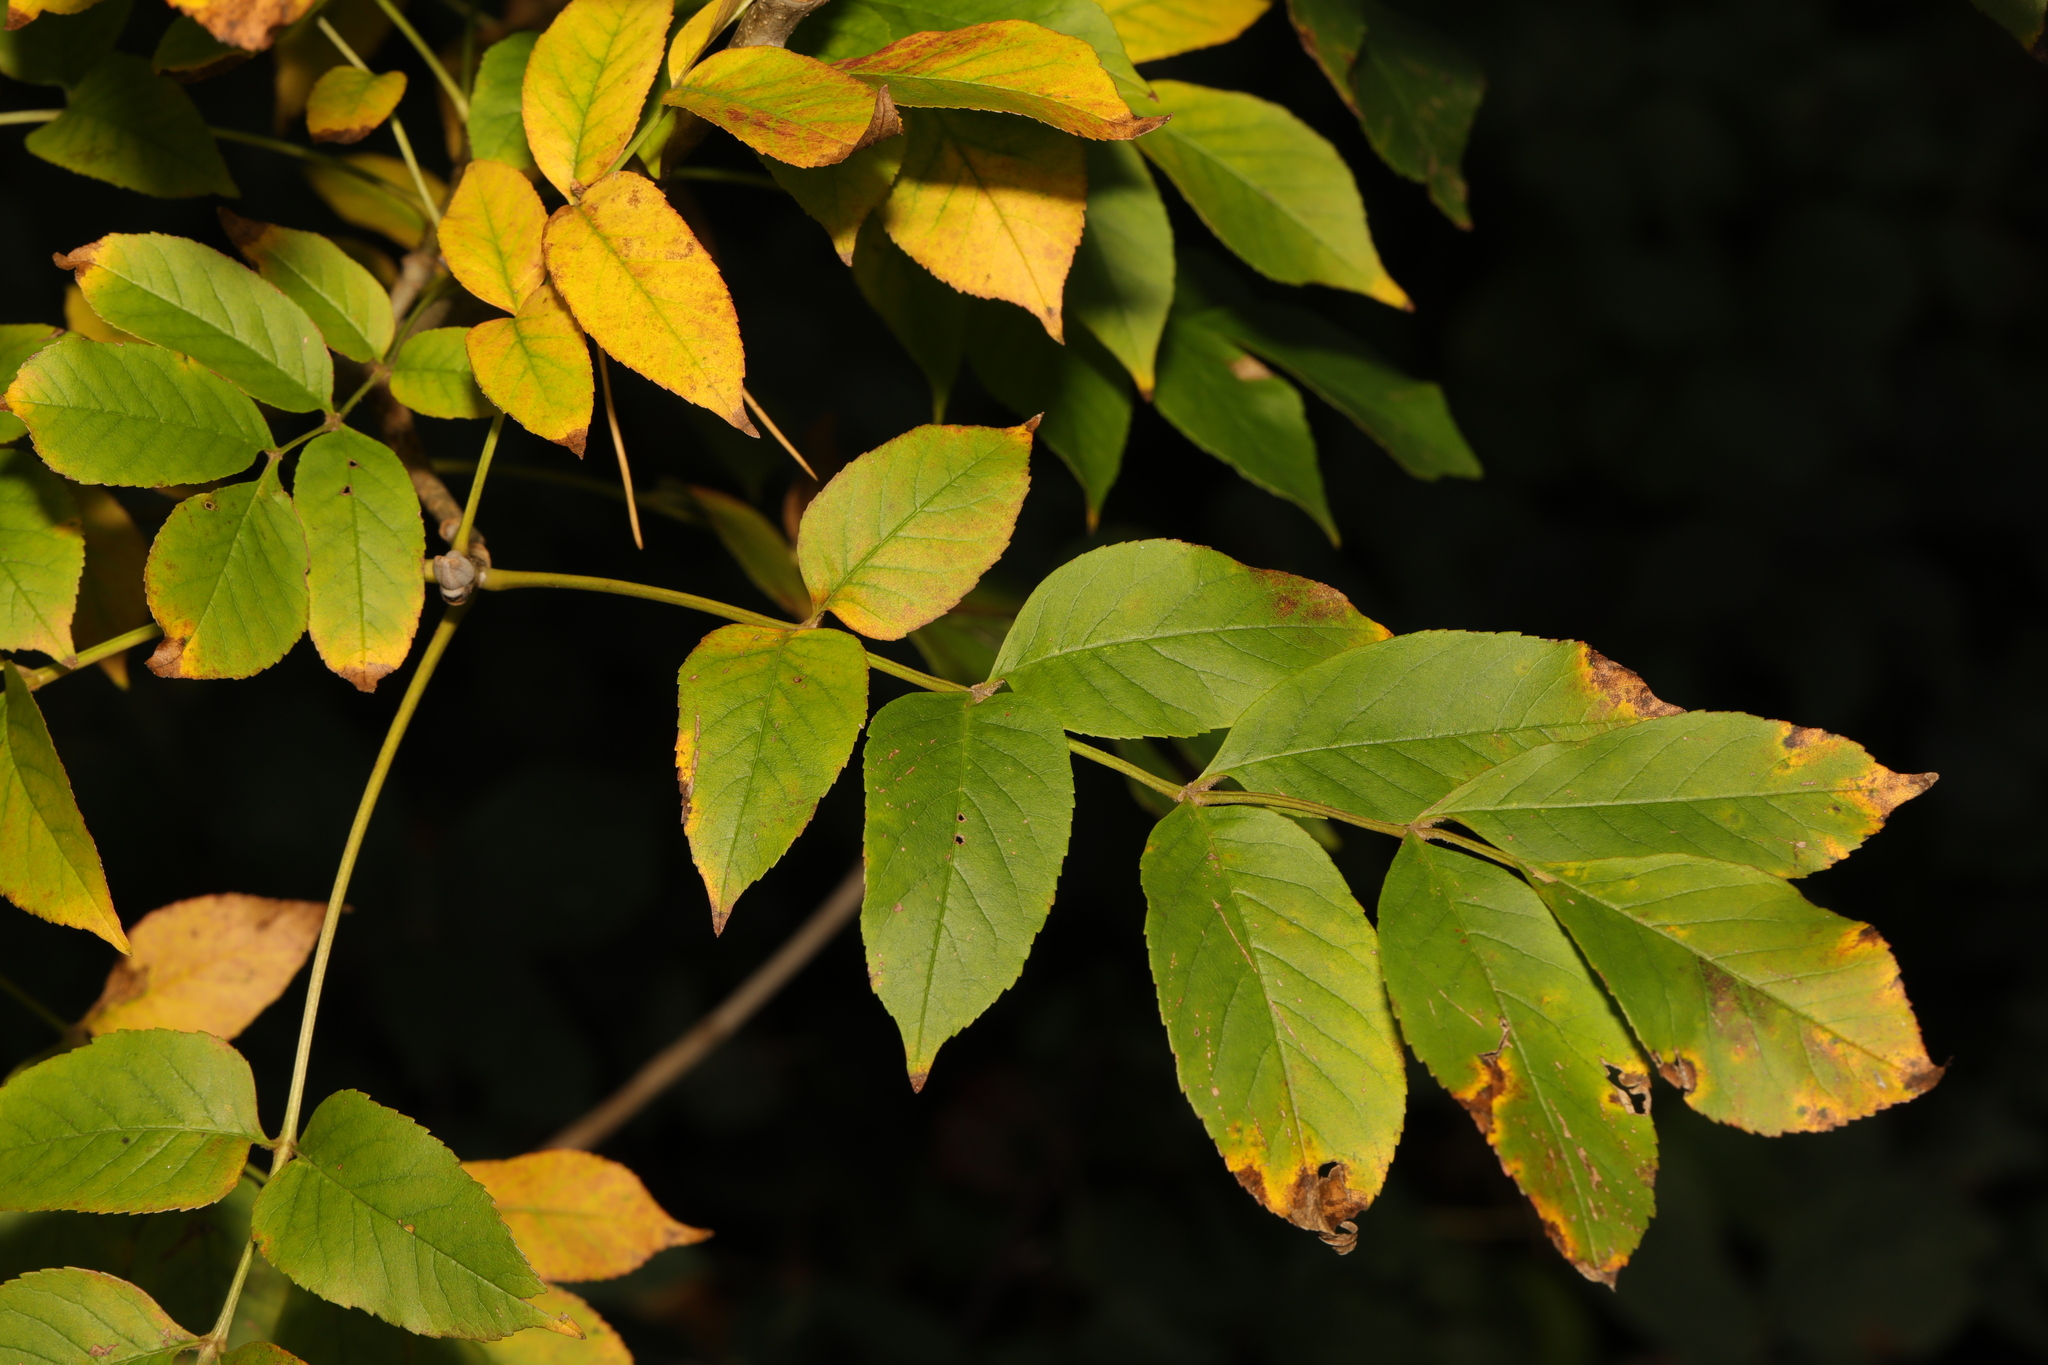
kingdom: Plantae
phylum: Tracheophyta
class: Magnoliopsida
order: Lamiales
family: Oleaceae
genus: Fraxinus
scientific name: Fraxinus excelsior
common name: European ash
